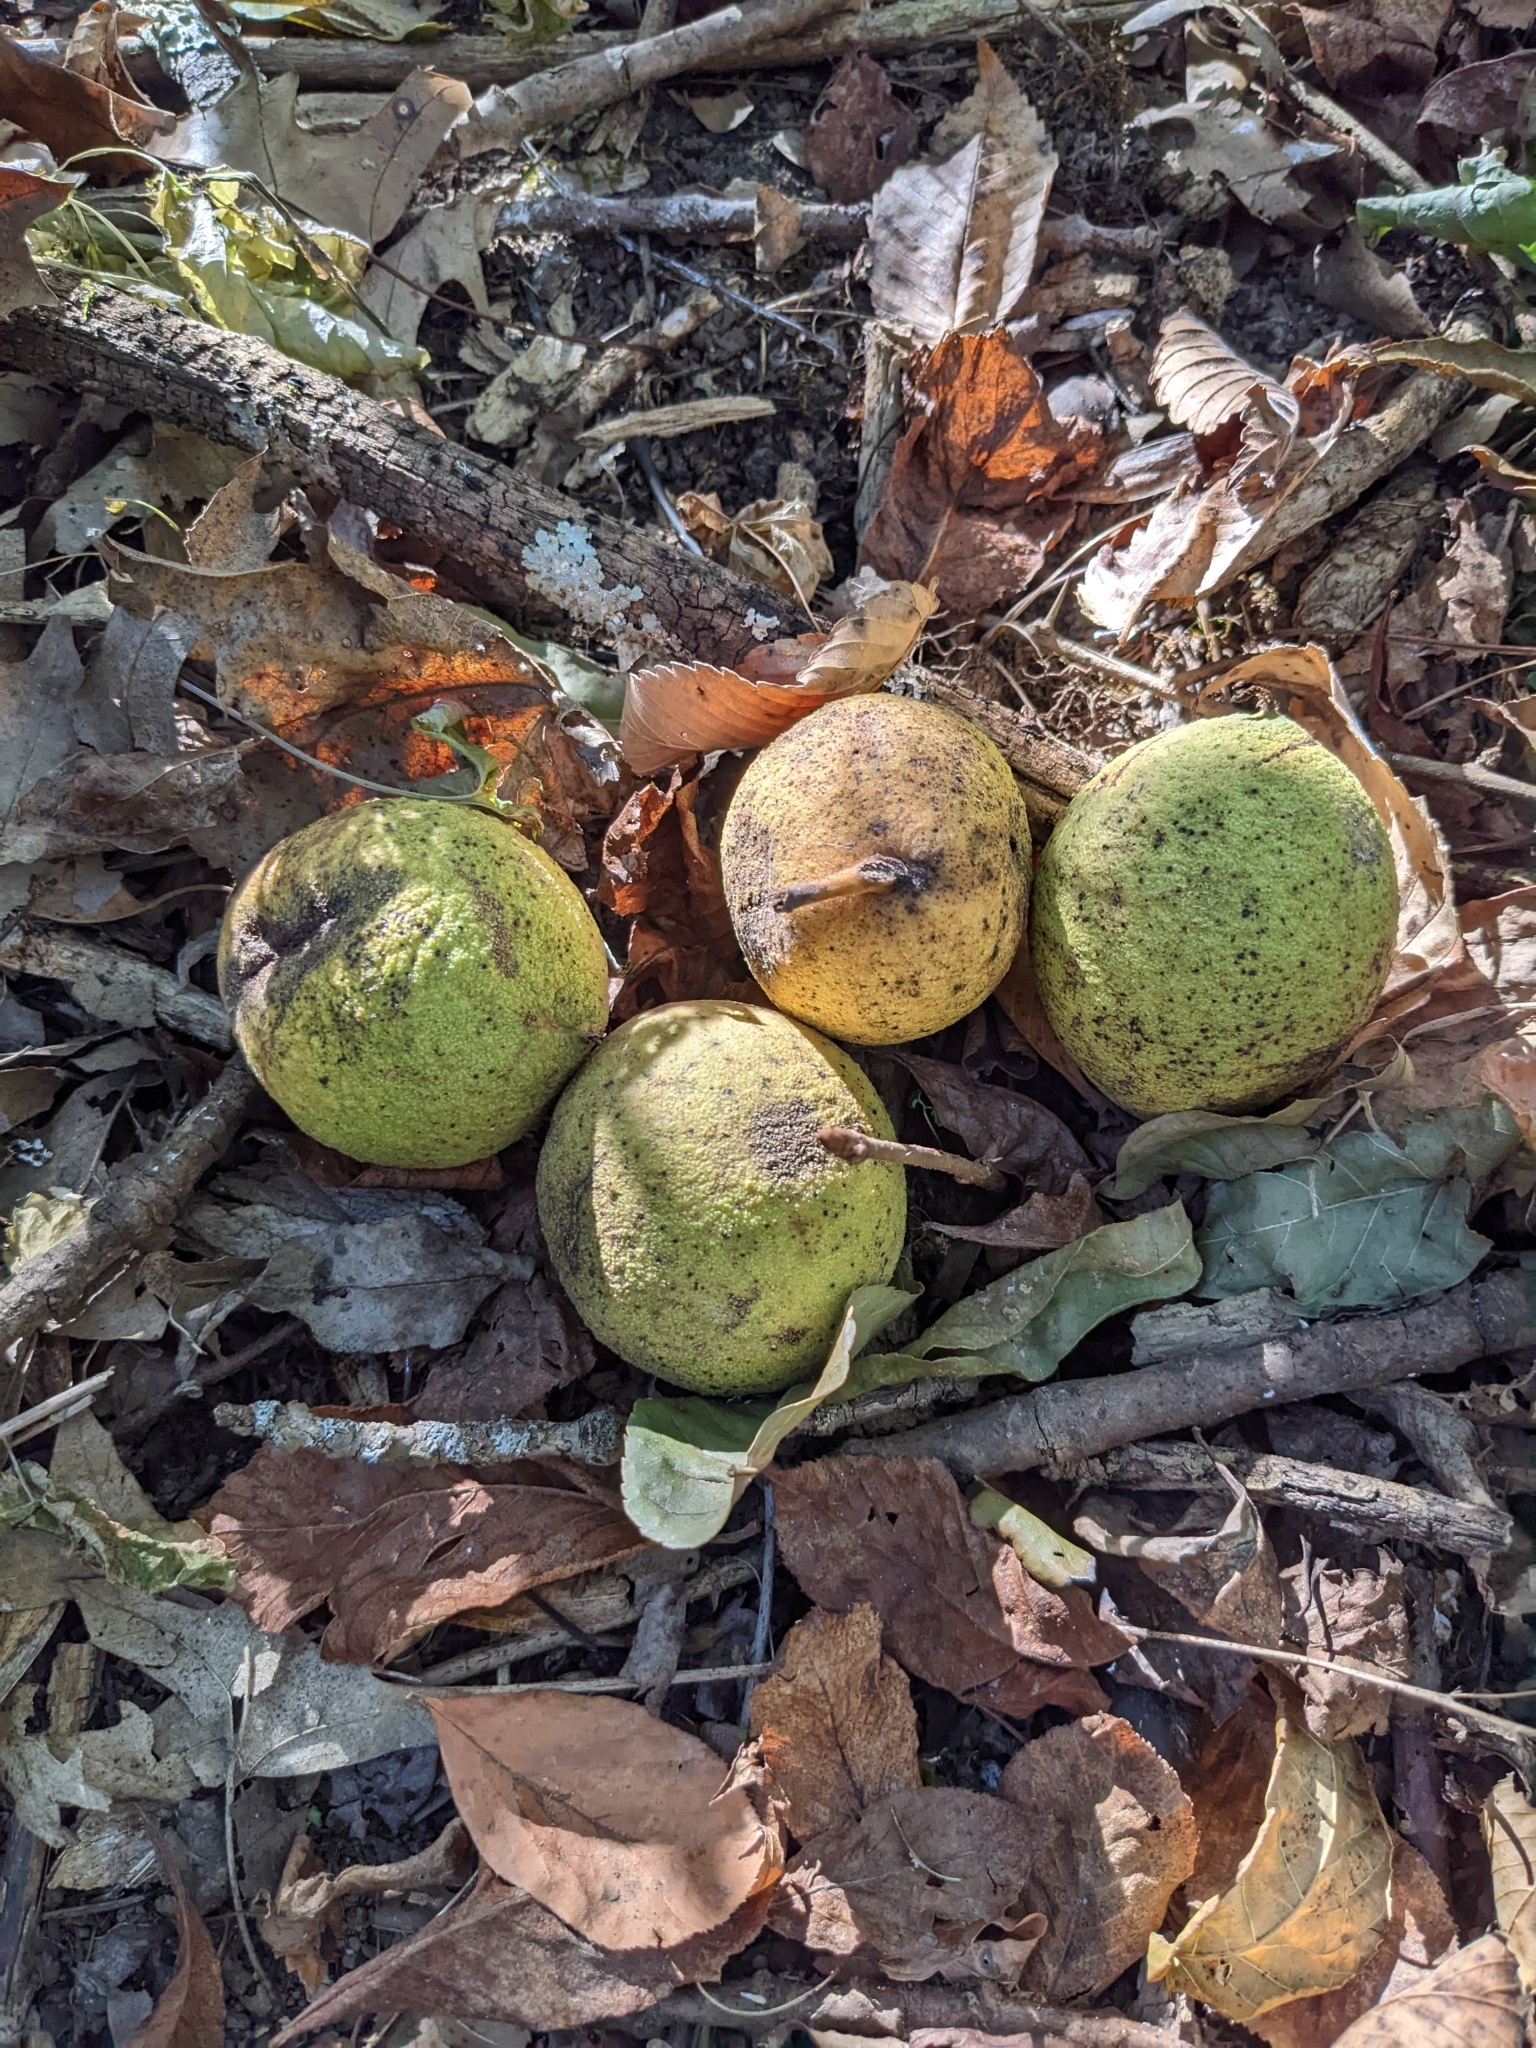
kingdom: Plantae
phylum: Tracheophyta
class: Magnoliopsida
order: Fagales
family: Juglandaceae
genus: Juglans
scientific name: Juglans nigra
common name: Black walnut
